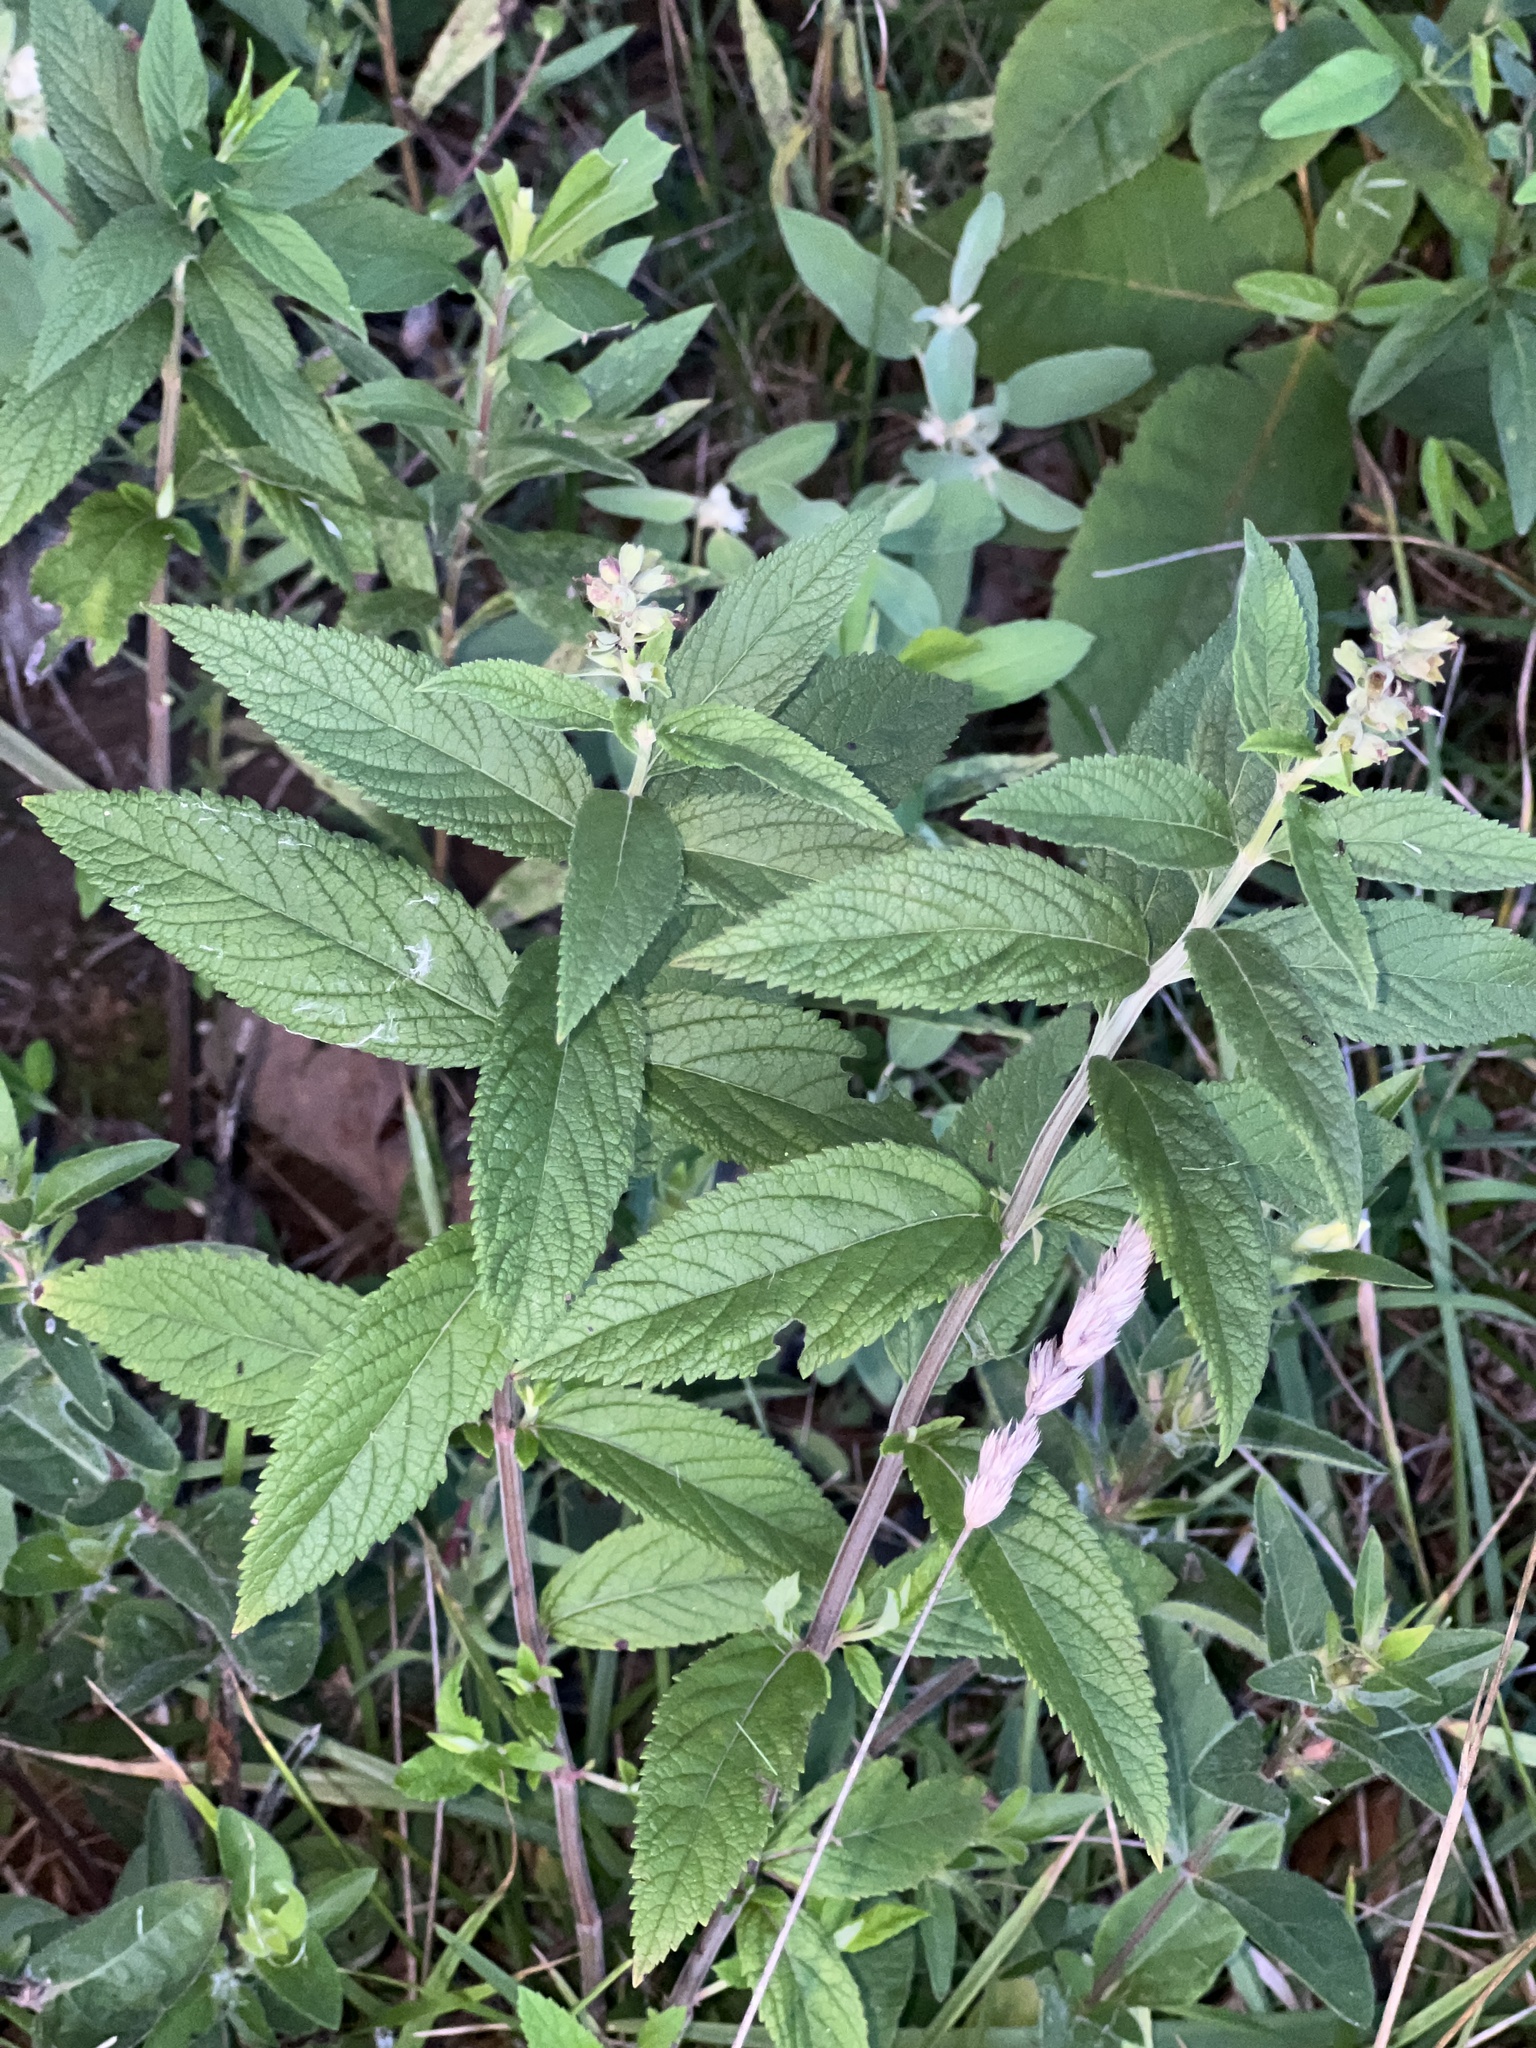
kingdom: Plantae
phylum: Tracheophyta
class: Magnoliopsida
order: Lamiales
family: Lamiaceae
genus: Teucrium
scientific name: Teucrium canadense
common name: American germander
